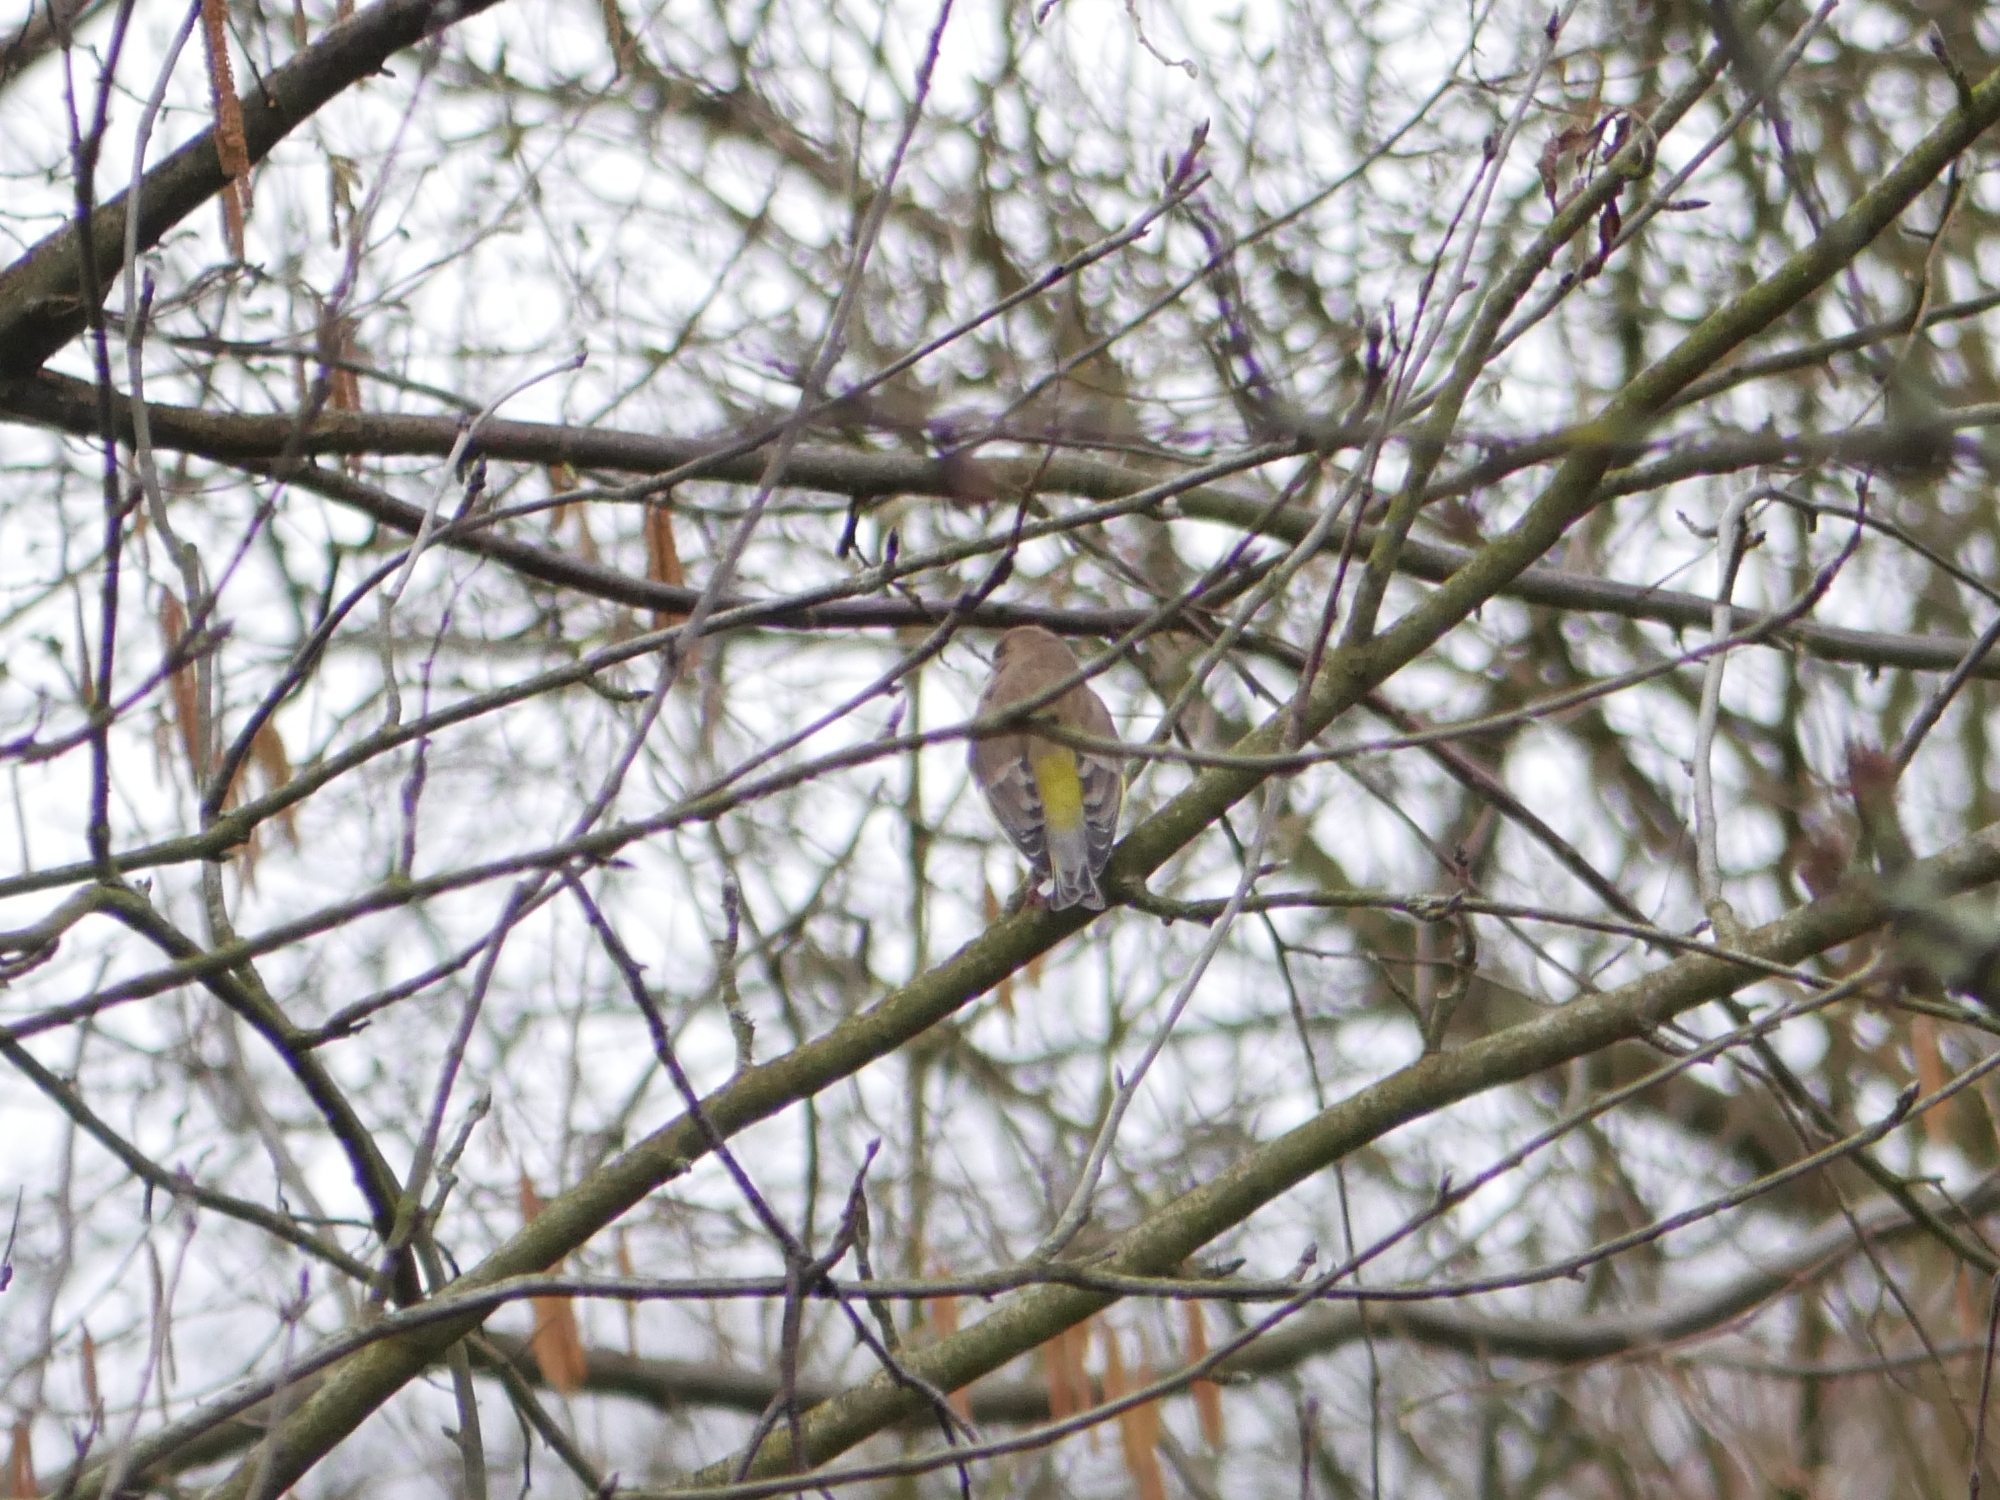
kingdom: Plantae
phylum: Tracheophyta
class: Liliopsida
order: Poales
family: Poaceae
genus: Chloris
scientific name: Chloris chloris
